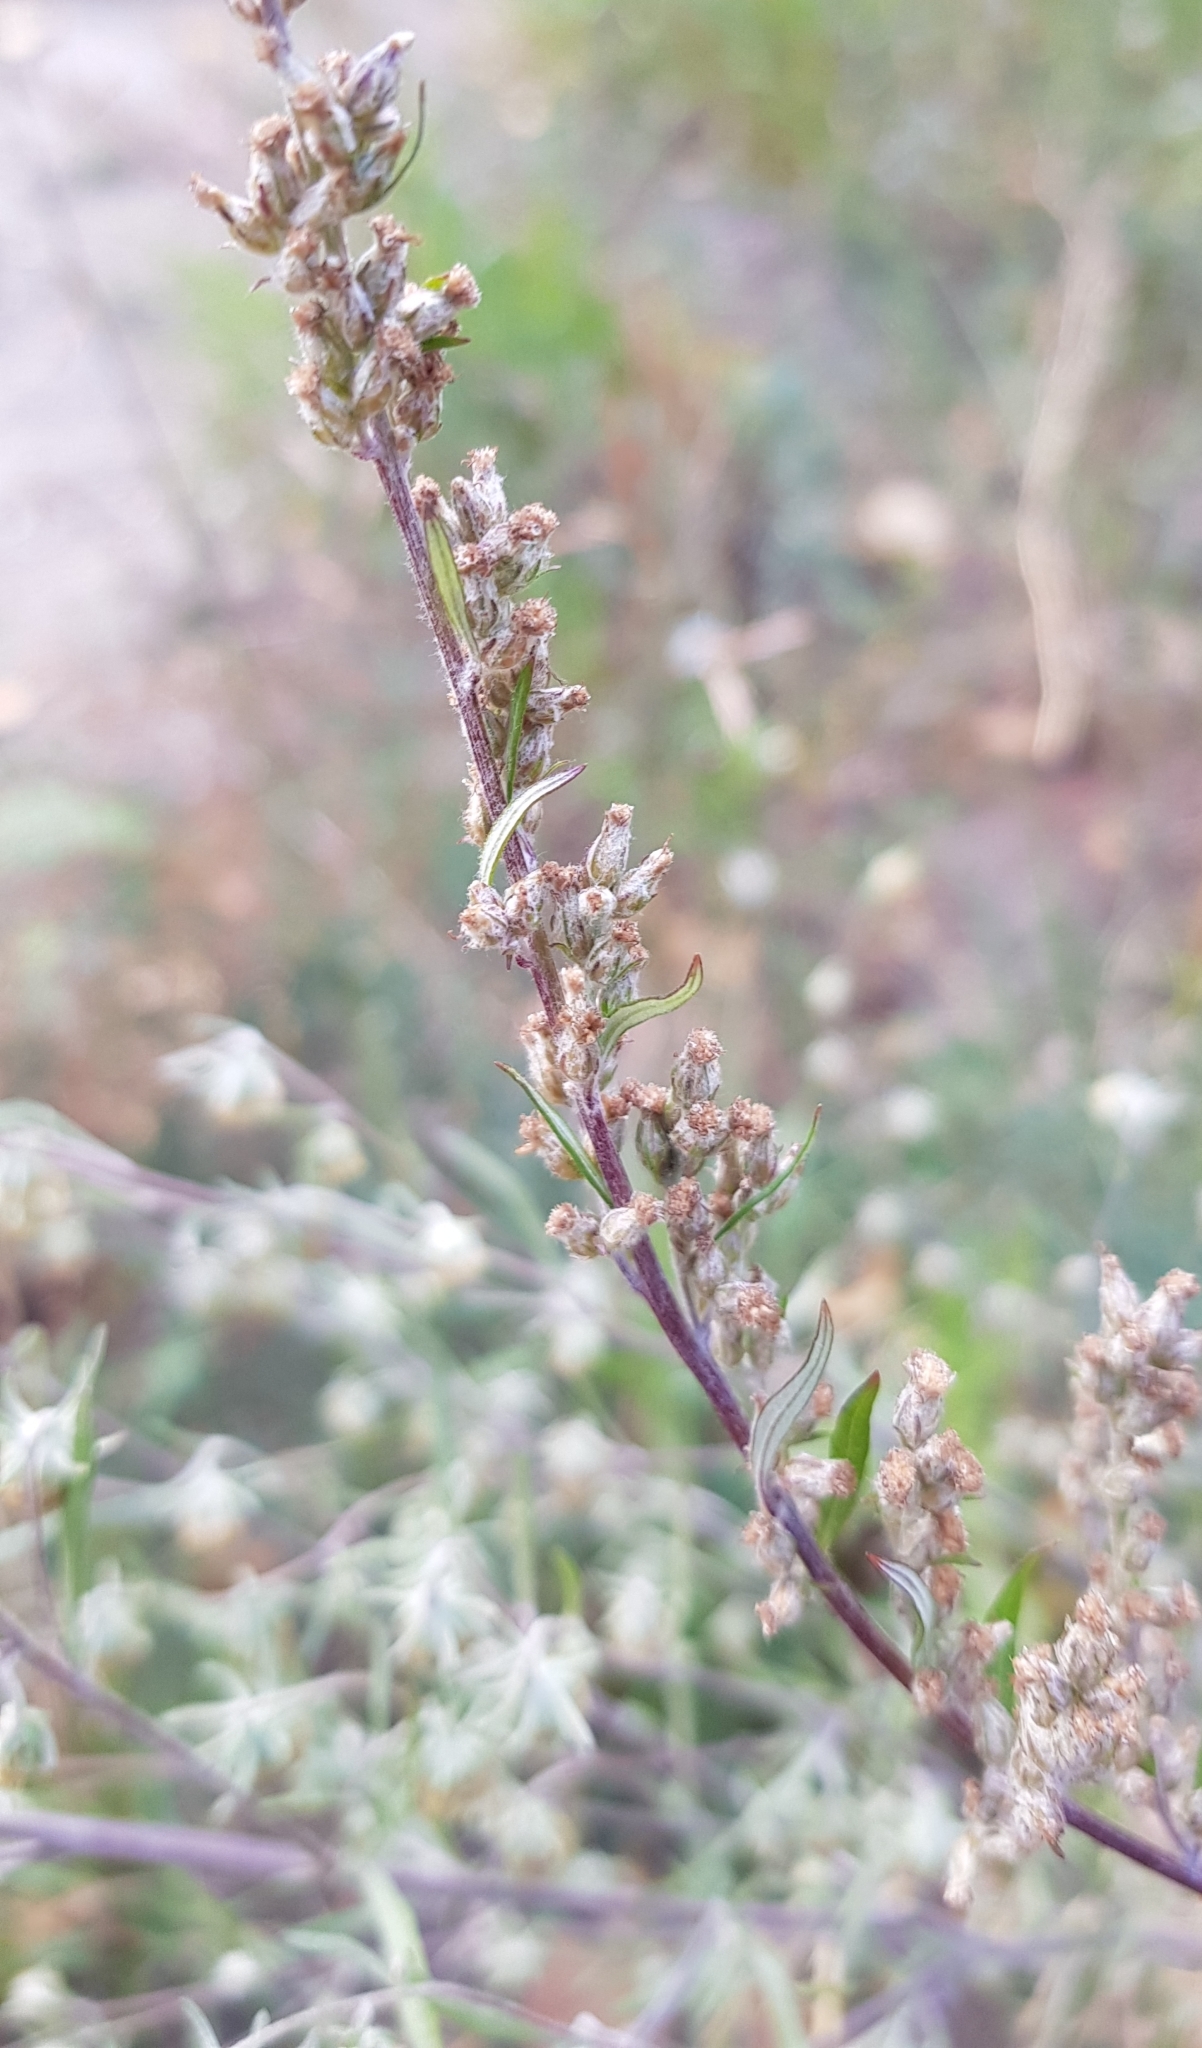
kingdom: Plantae
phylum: Tracheophyta
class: Magnoliopsida
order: Asterales
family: Asteraceae
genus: Artemisia
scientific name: Artemisia mongolica
